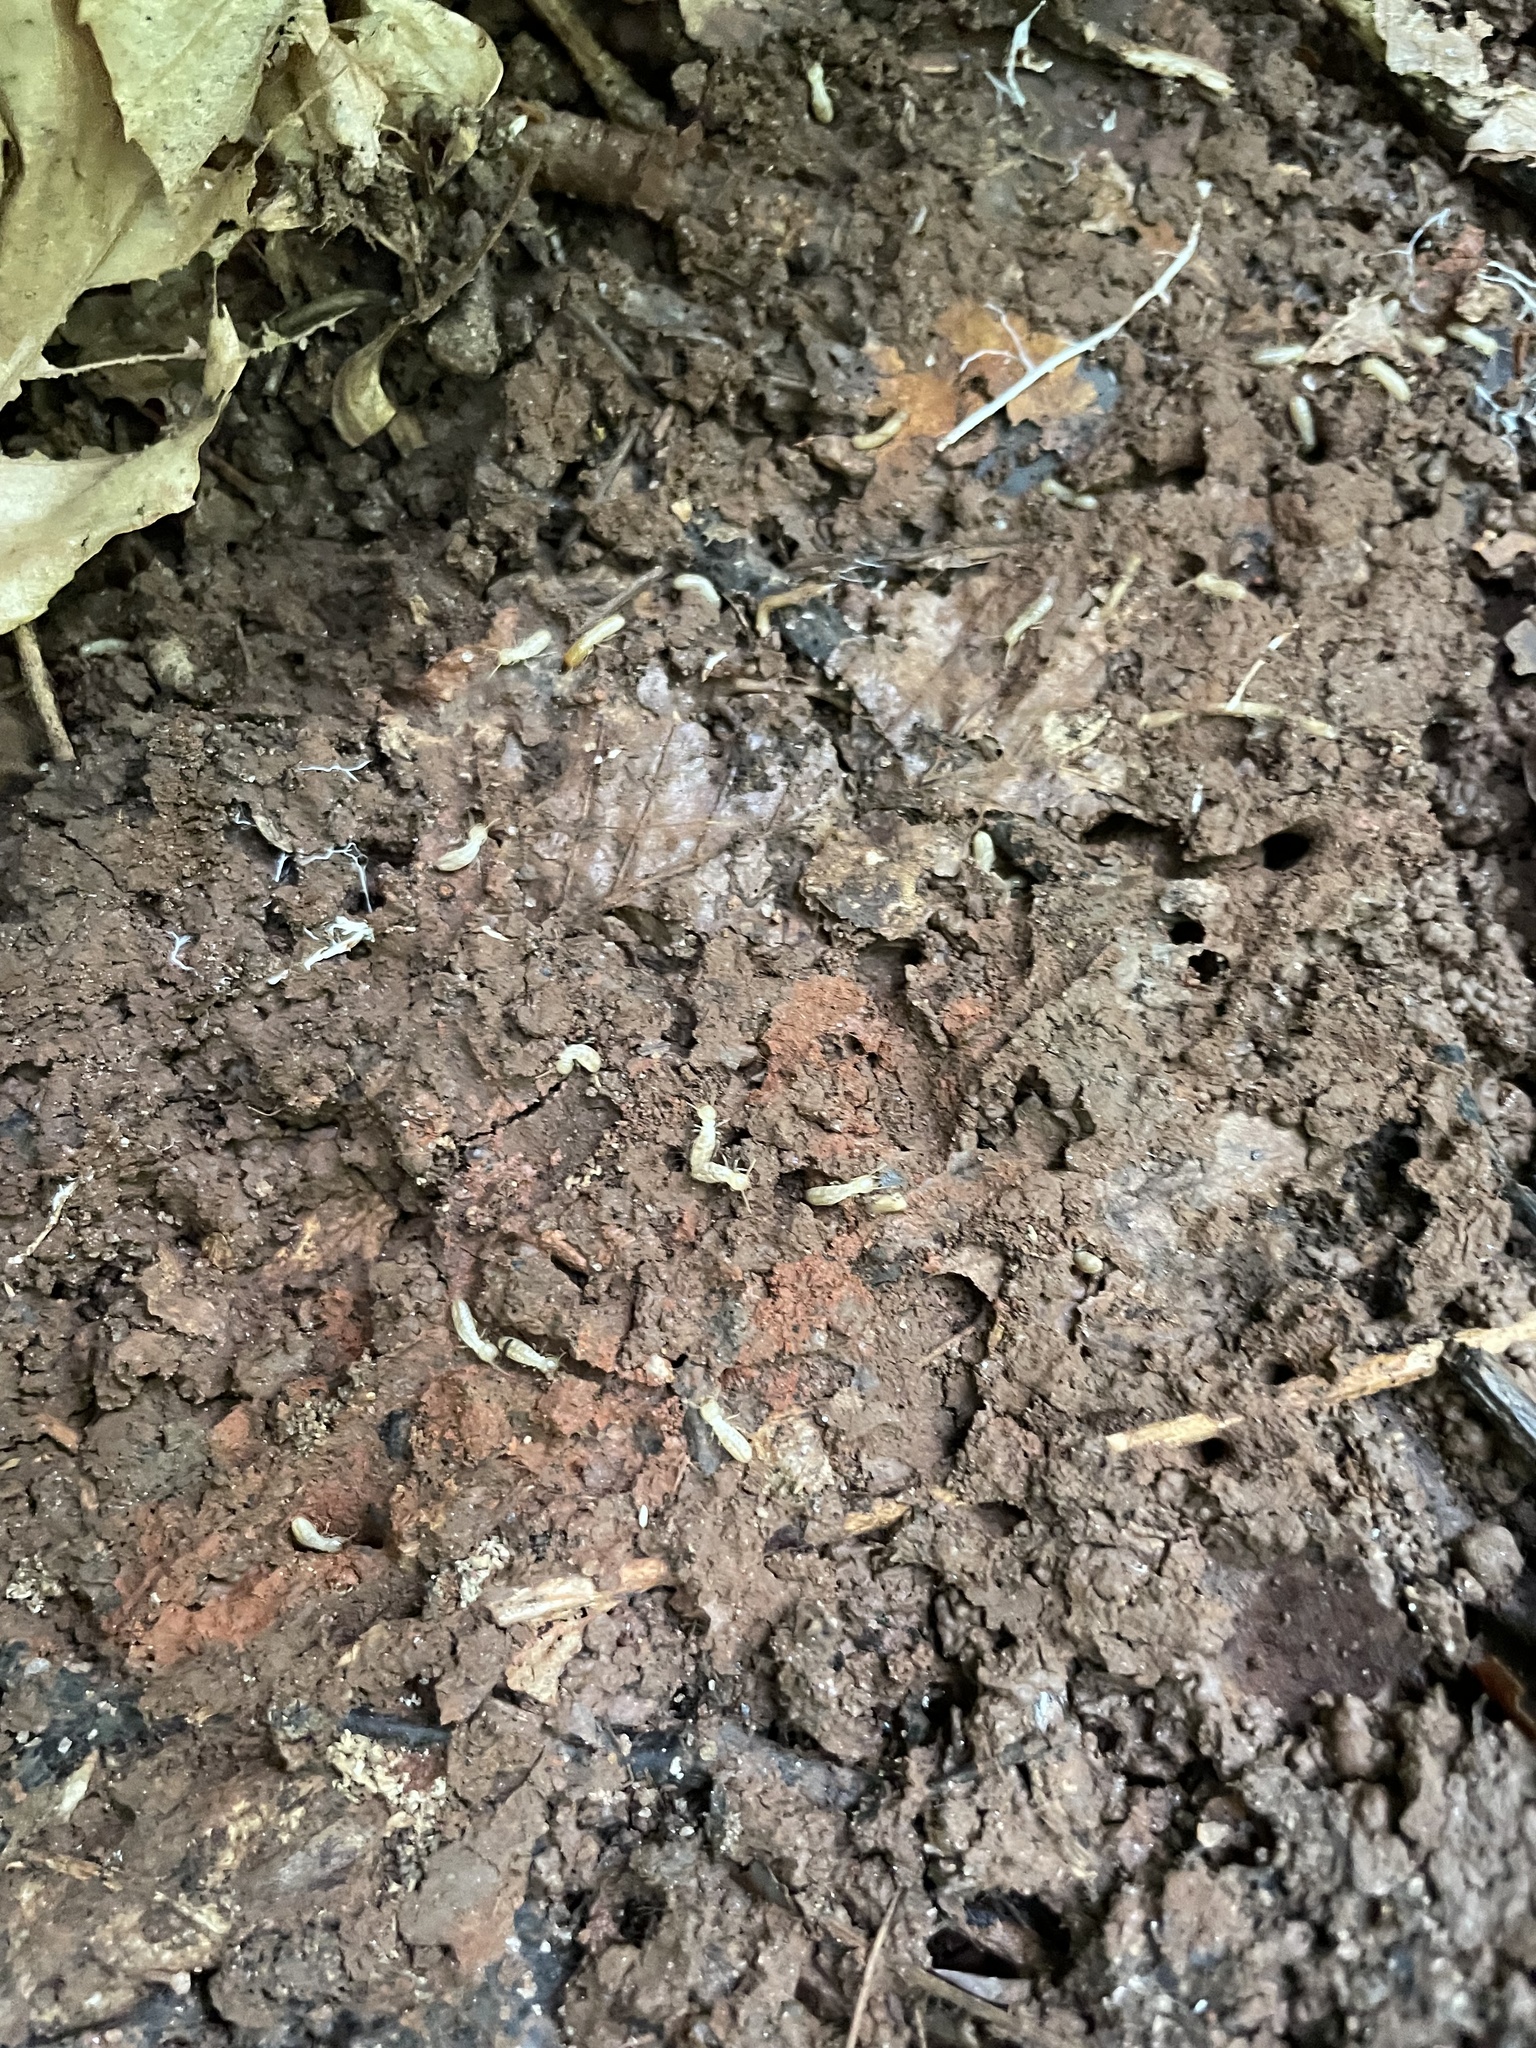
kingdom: Animalia
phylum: Arthropoda
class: Insecta
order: Blattodea
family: Rhinotermitidae
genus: Reticulitermes
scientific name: Reticulitermes flavipes
